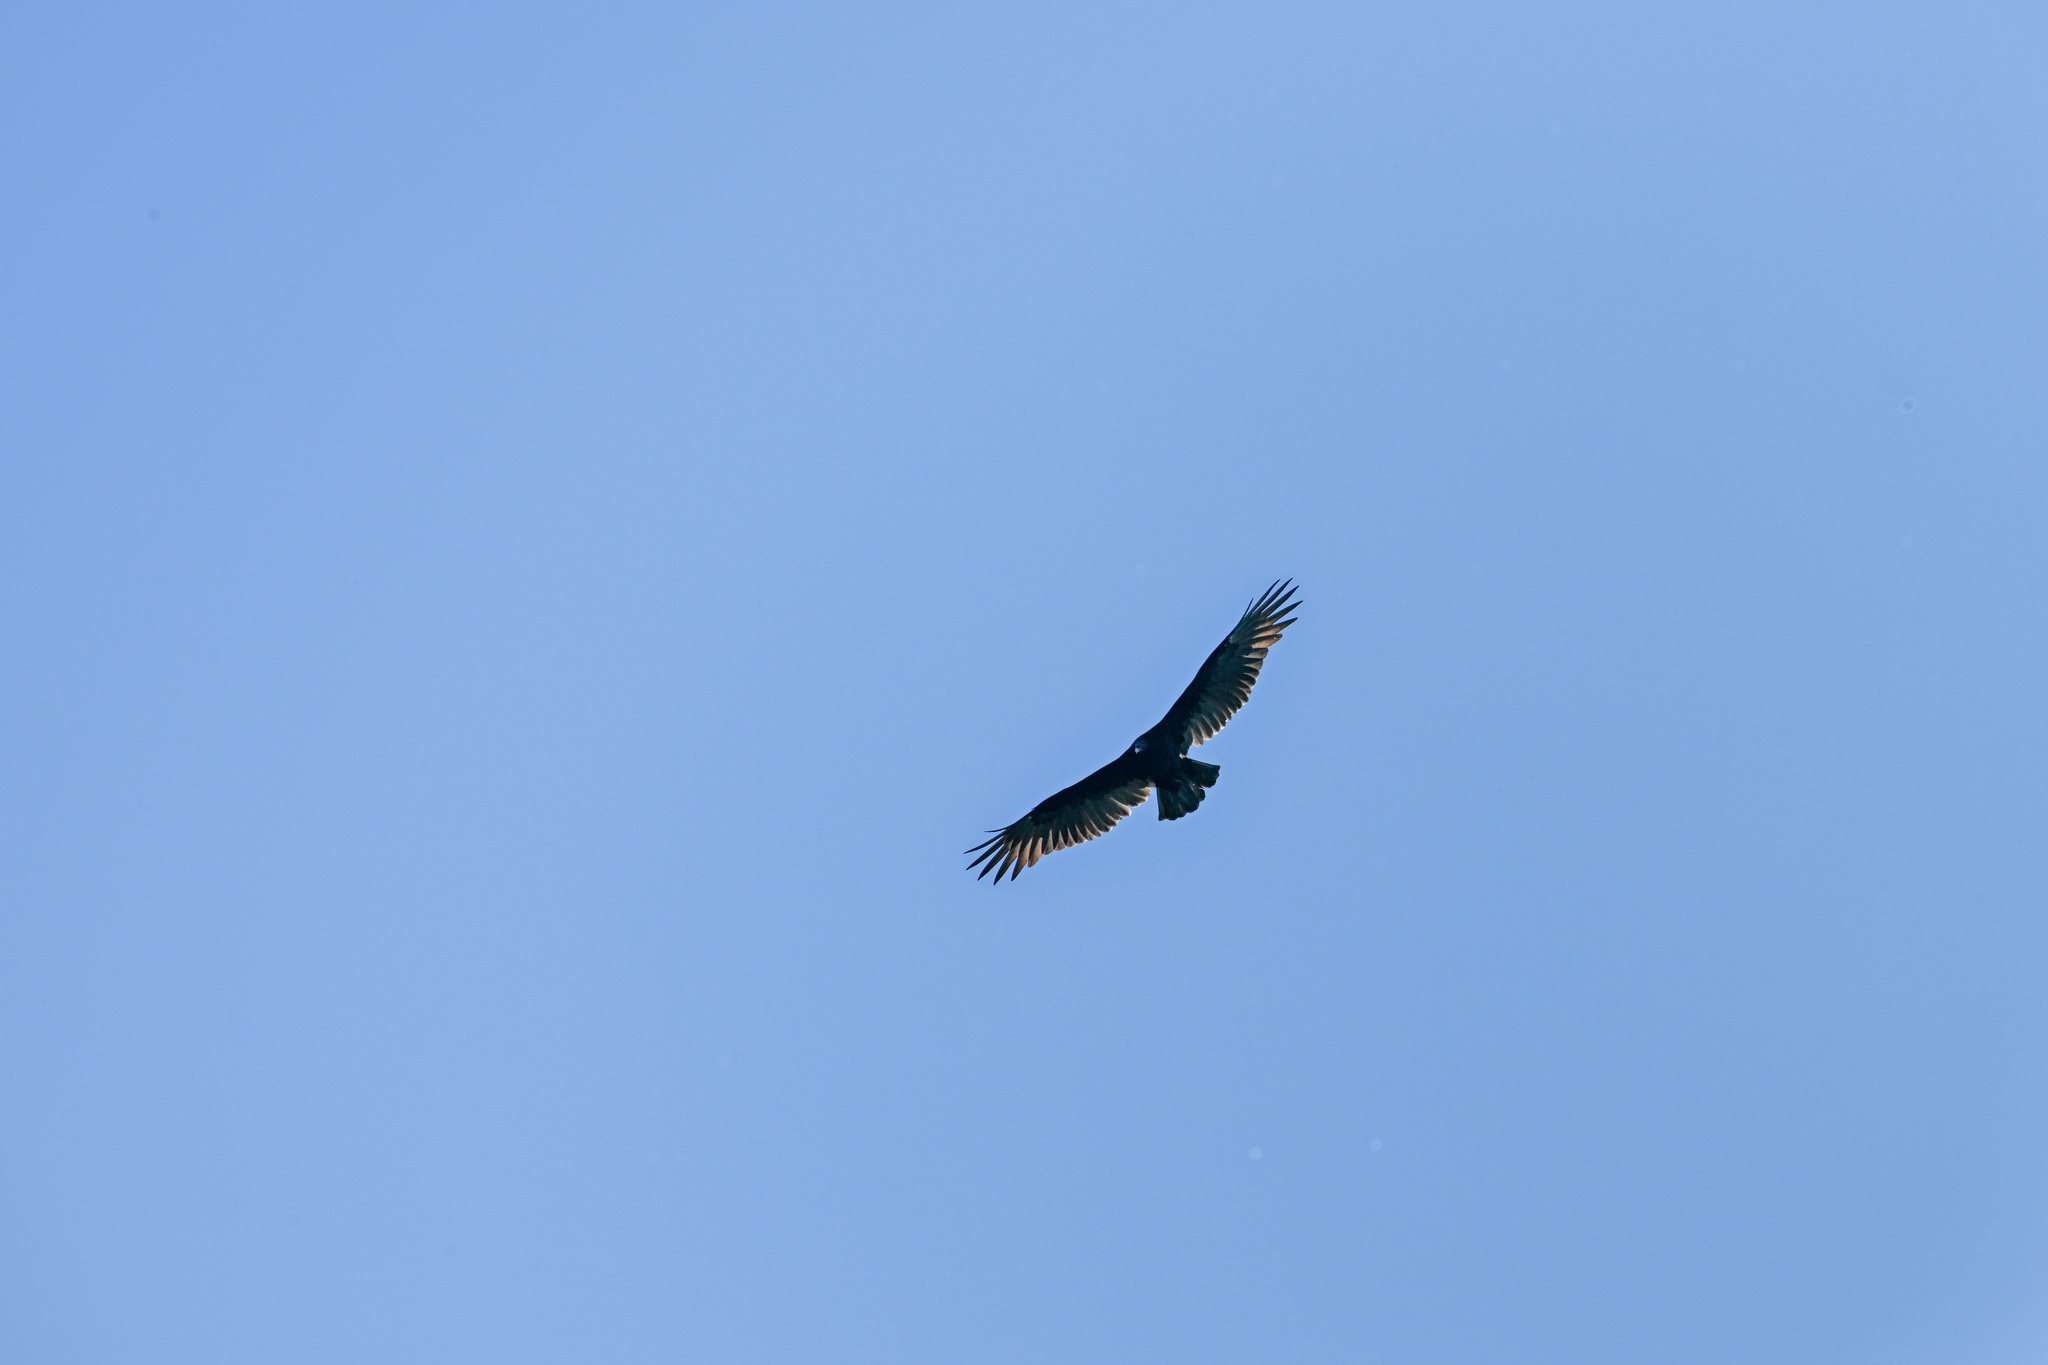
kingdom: Animalia
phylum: Chordata
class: Aves
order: Accipitriformes
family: Cathartidae
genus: Cathartes
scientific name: Cathartes aura
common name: Turkey vulture
